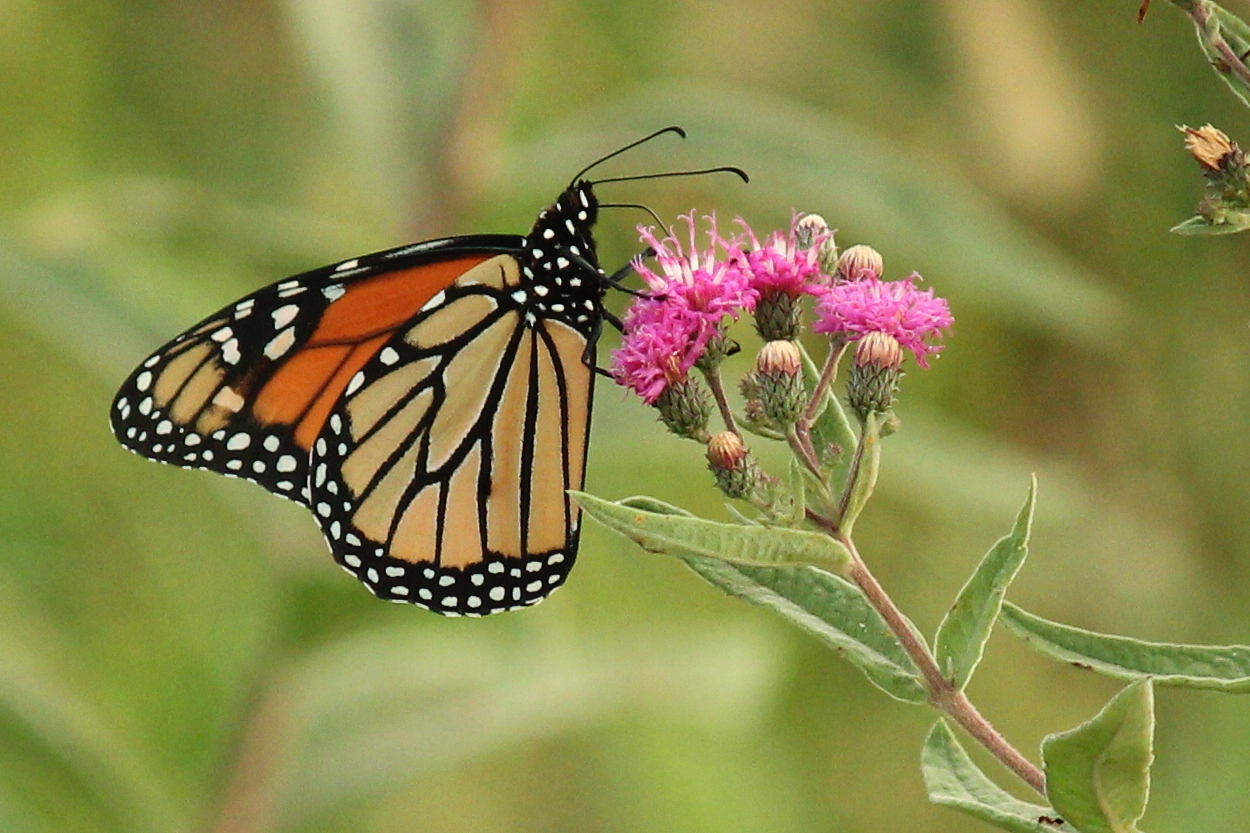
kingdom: Animalia
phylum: Arthropoda
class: Insecta
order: Lepidoptera
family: Nymphalidae
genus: Danaus
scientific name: Danaus plexippus
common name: Monarch
